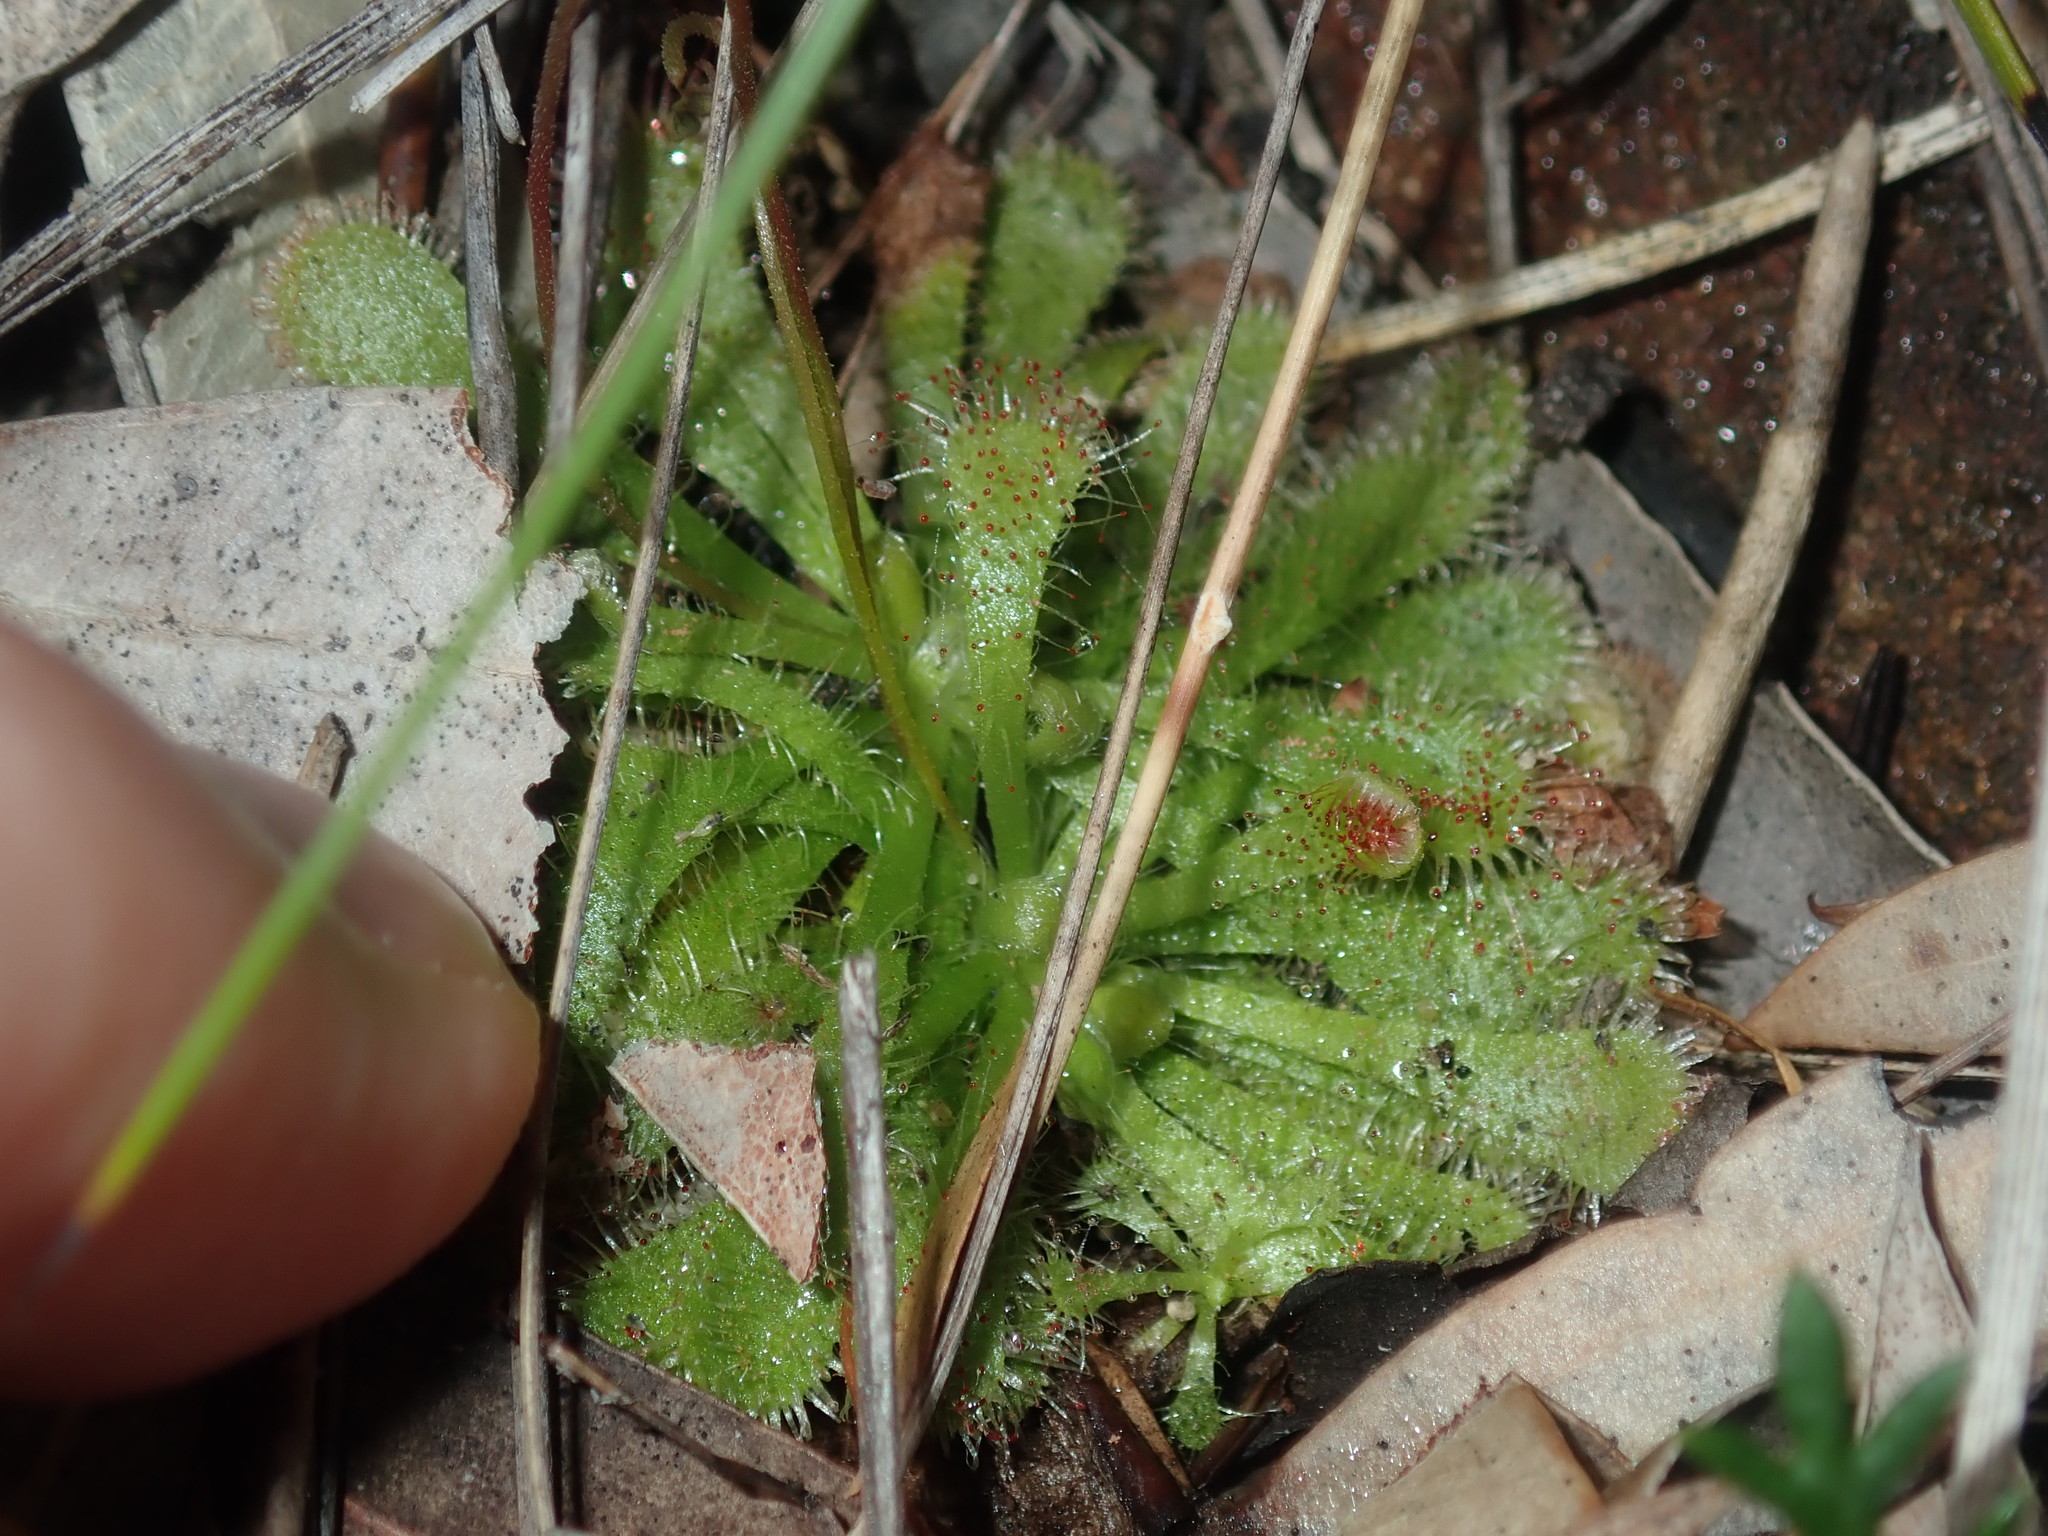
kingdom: Plantae
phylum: Tracheophyta
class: Magnoliopsida
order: Caryophyllales
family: Droseraceae
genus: Drosera
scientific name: Drosera spatulata
